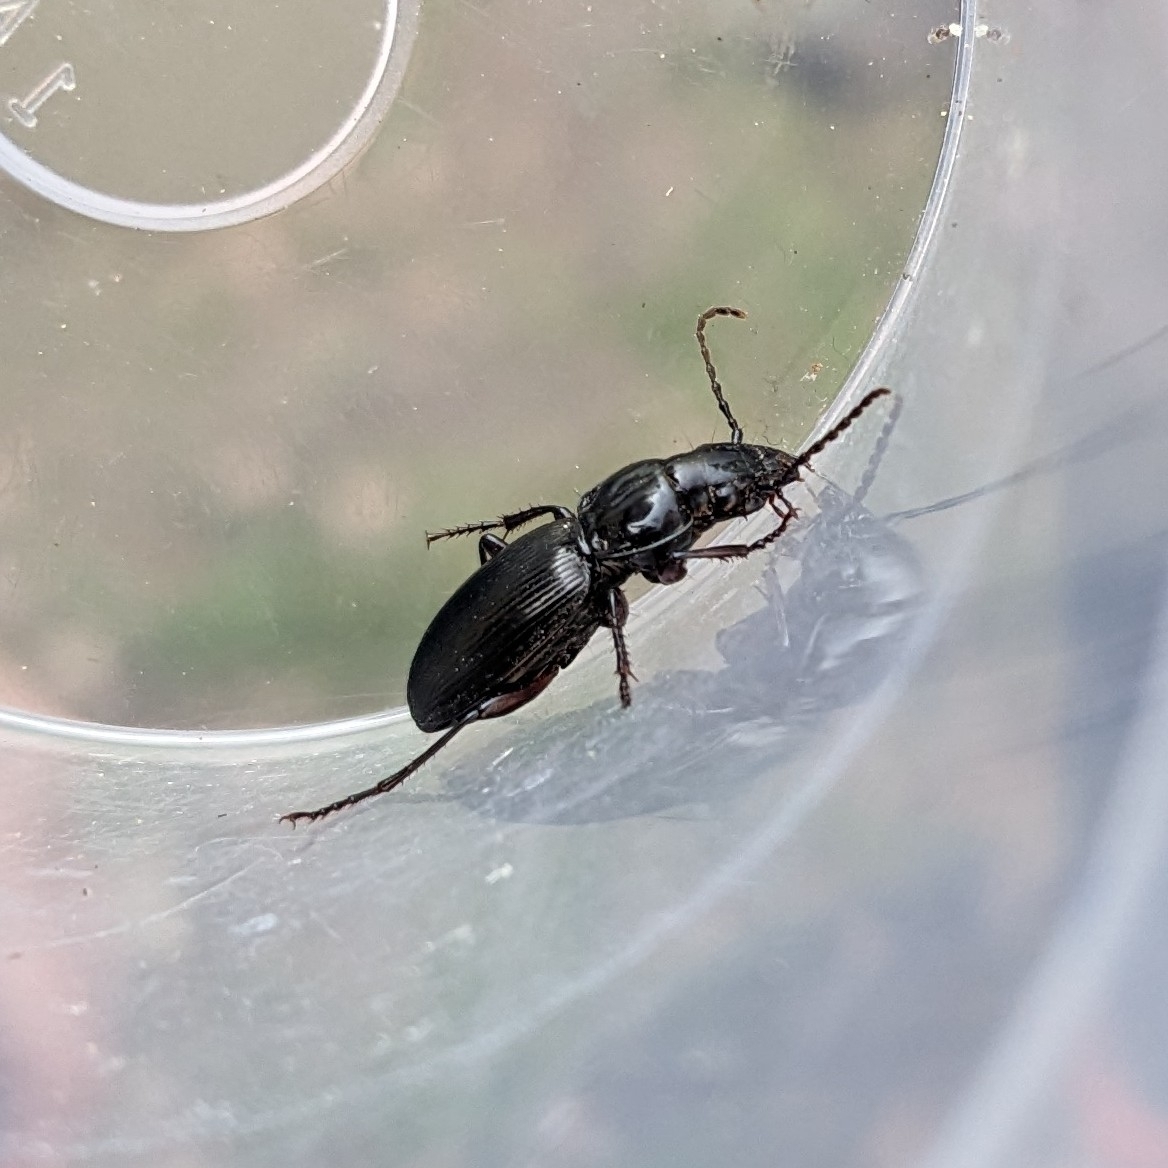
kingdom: Animalia
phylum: Arthropoda
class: Insecta
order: Coleoptera
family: Carabidae
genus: Pterostichus
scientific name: Pterostichus madidus
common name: Black clock
